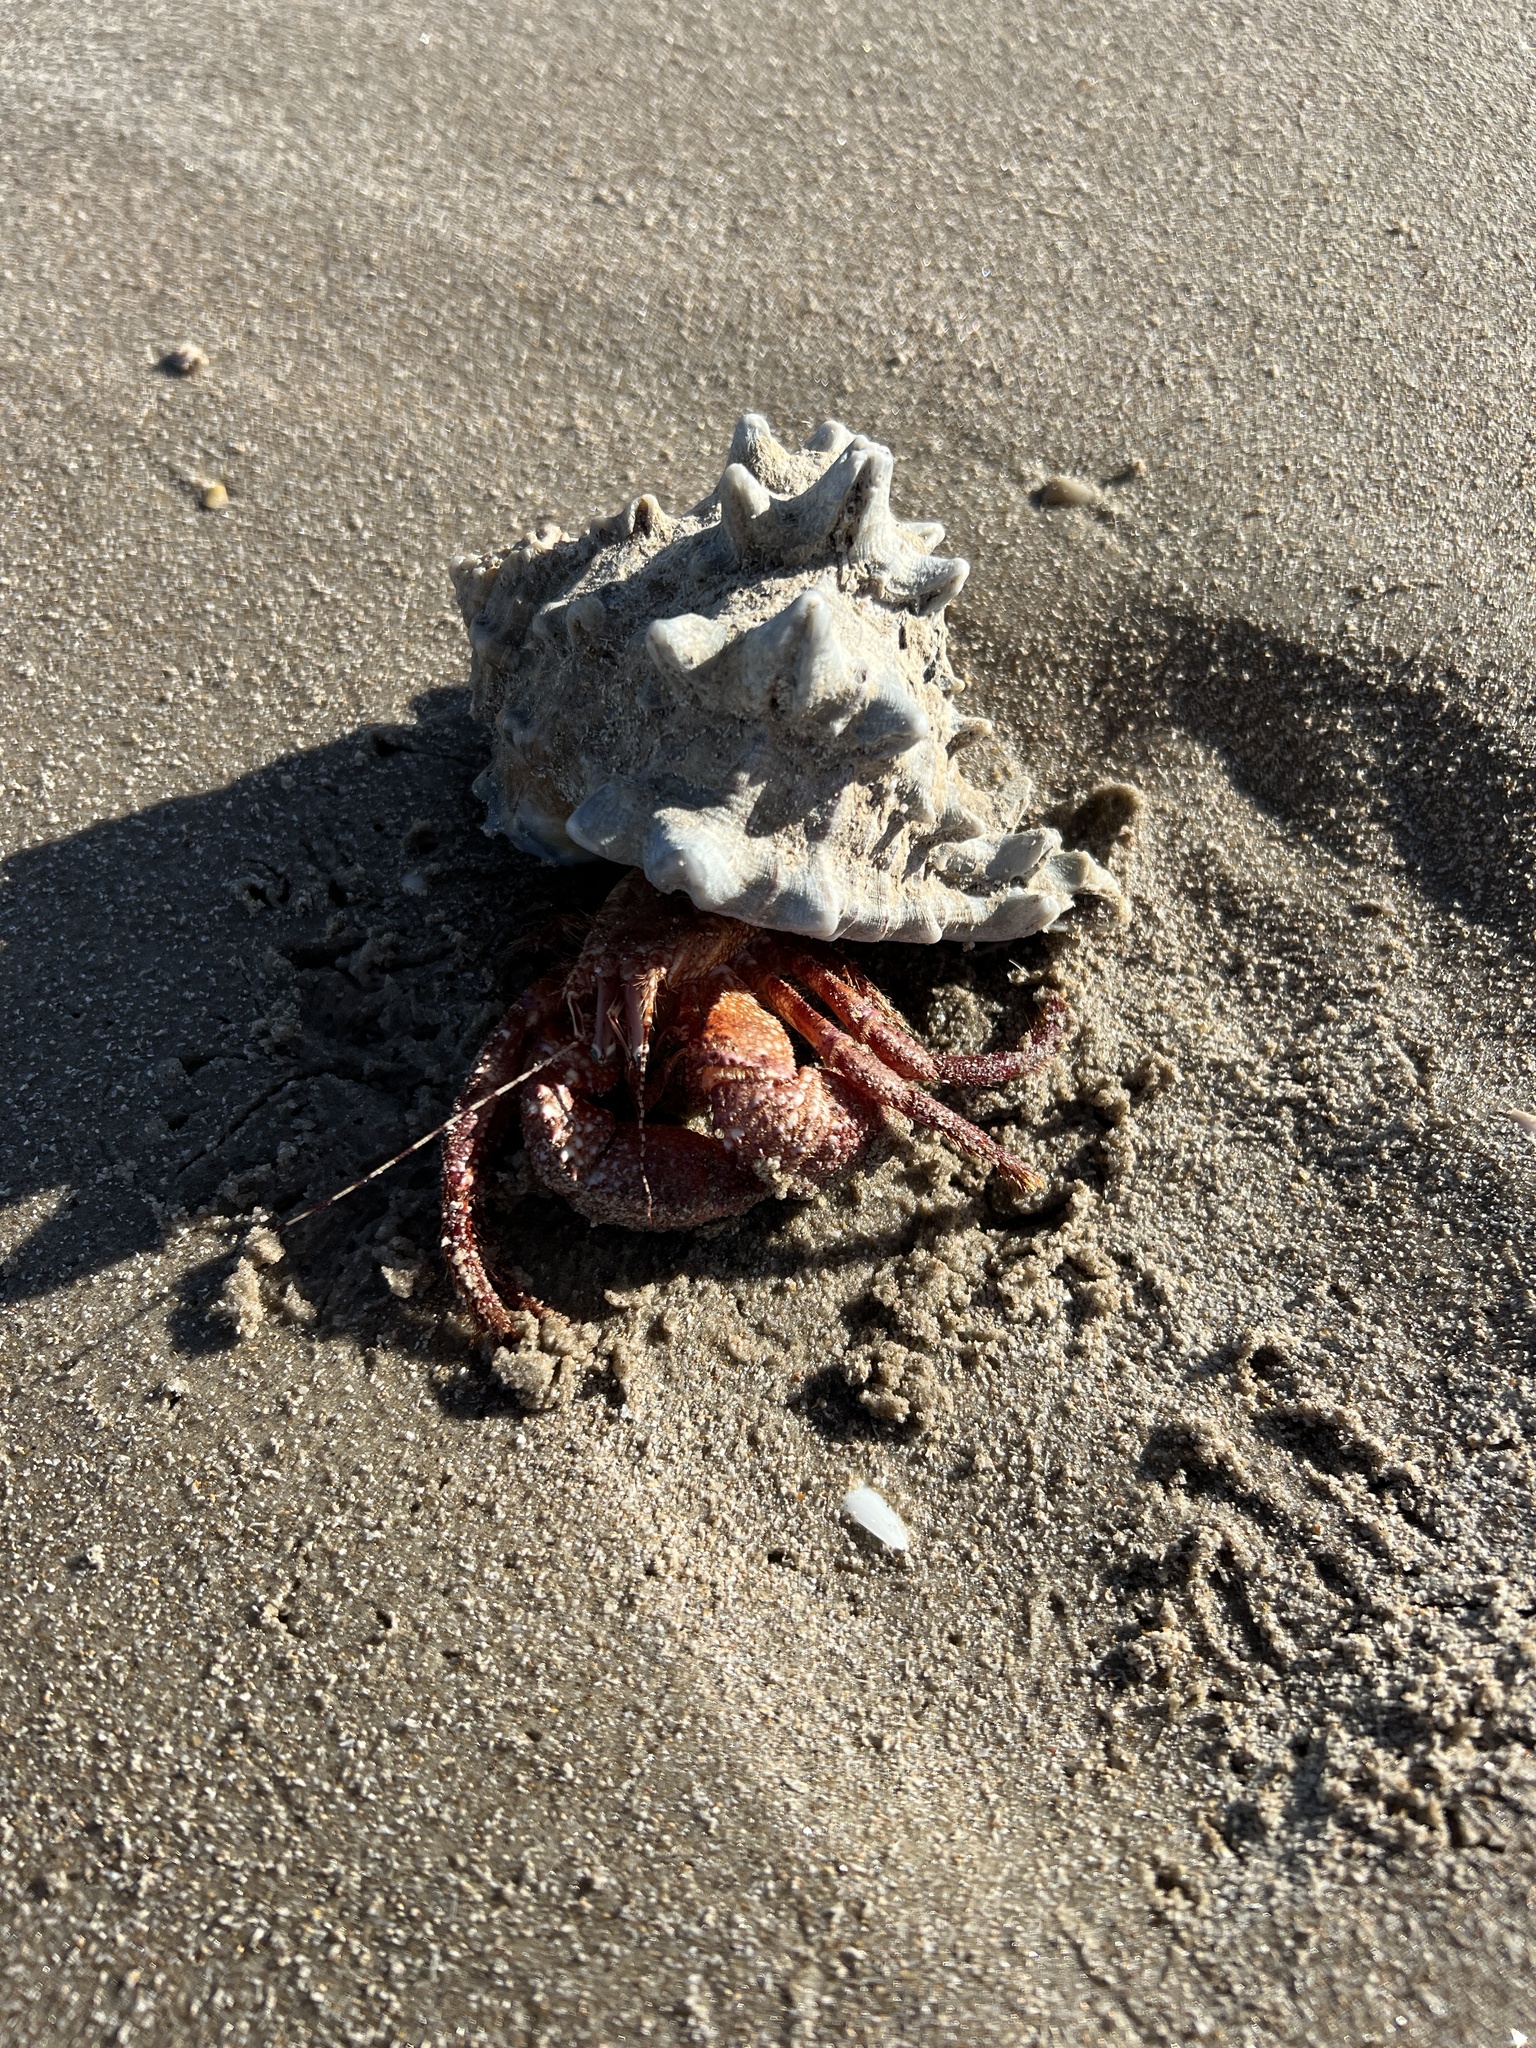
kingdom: Animalia
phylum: Arthropoda
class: Malacostraca
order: Decapoda
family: Diogenidae
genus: Petrochirus
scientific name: Petrochirus diogenes
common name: Giant hermit crab
